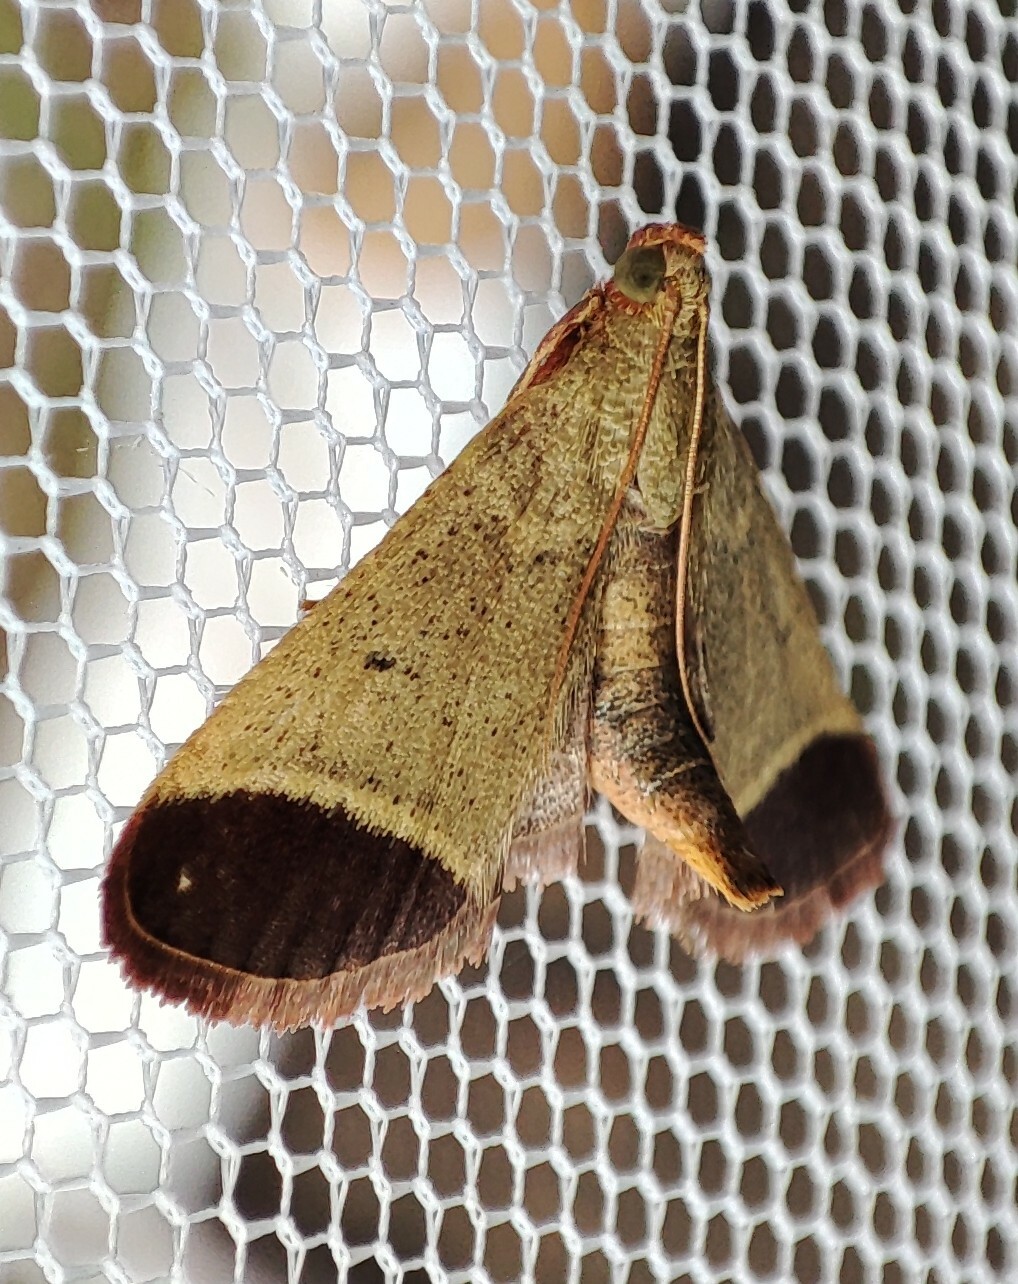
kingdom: Animalia
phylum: Arthropoda
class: Insecta
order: Lepidoptera
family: Pyralidae
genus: Tegulifera
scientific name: Tegulifera obovalis
